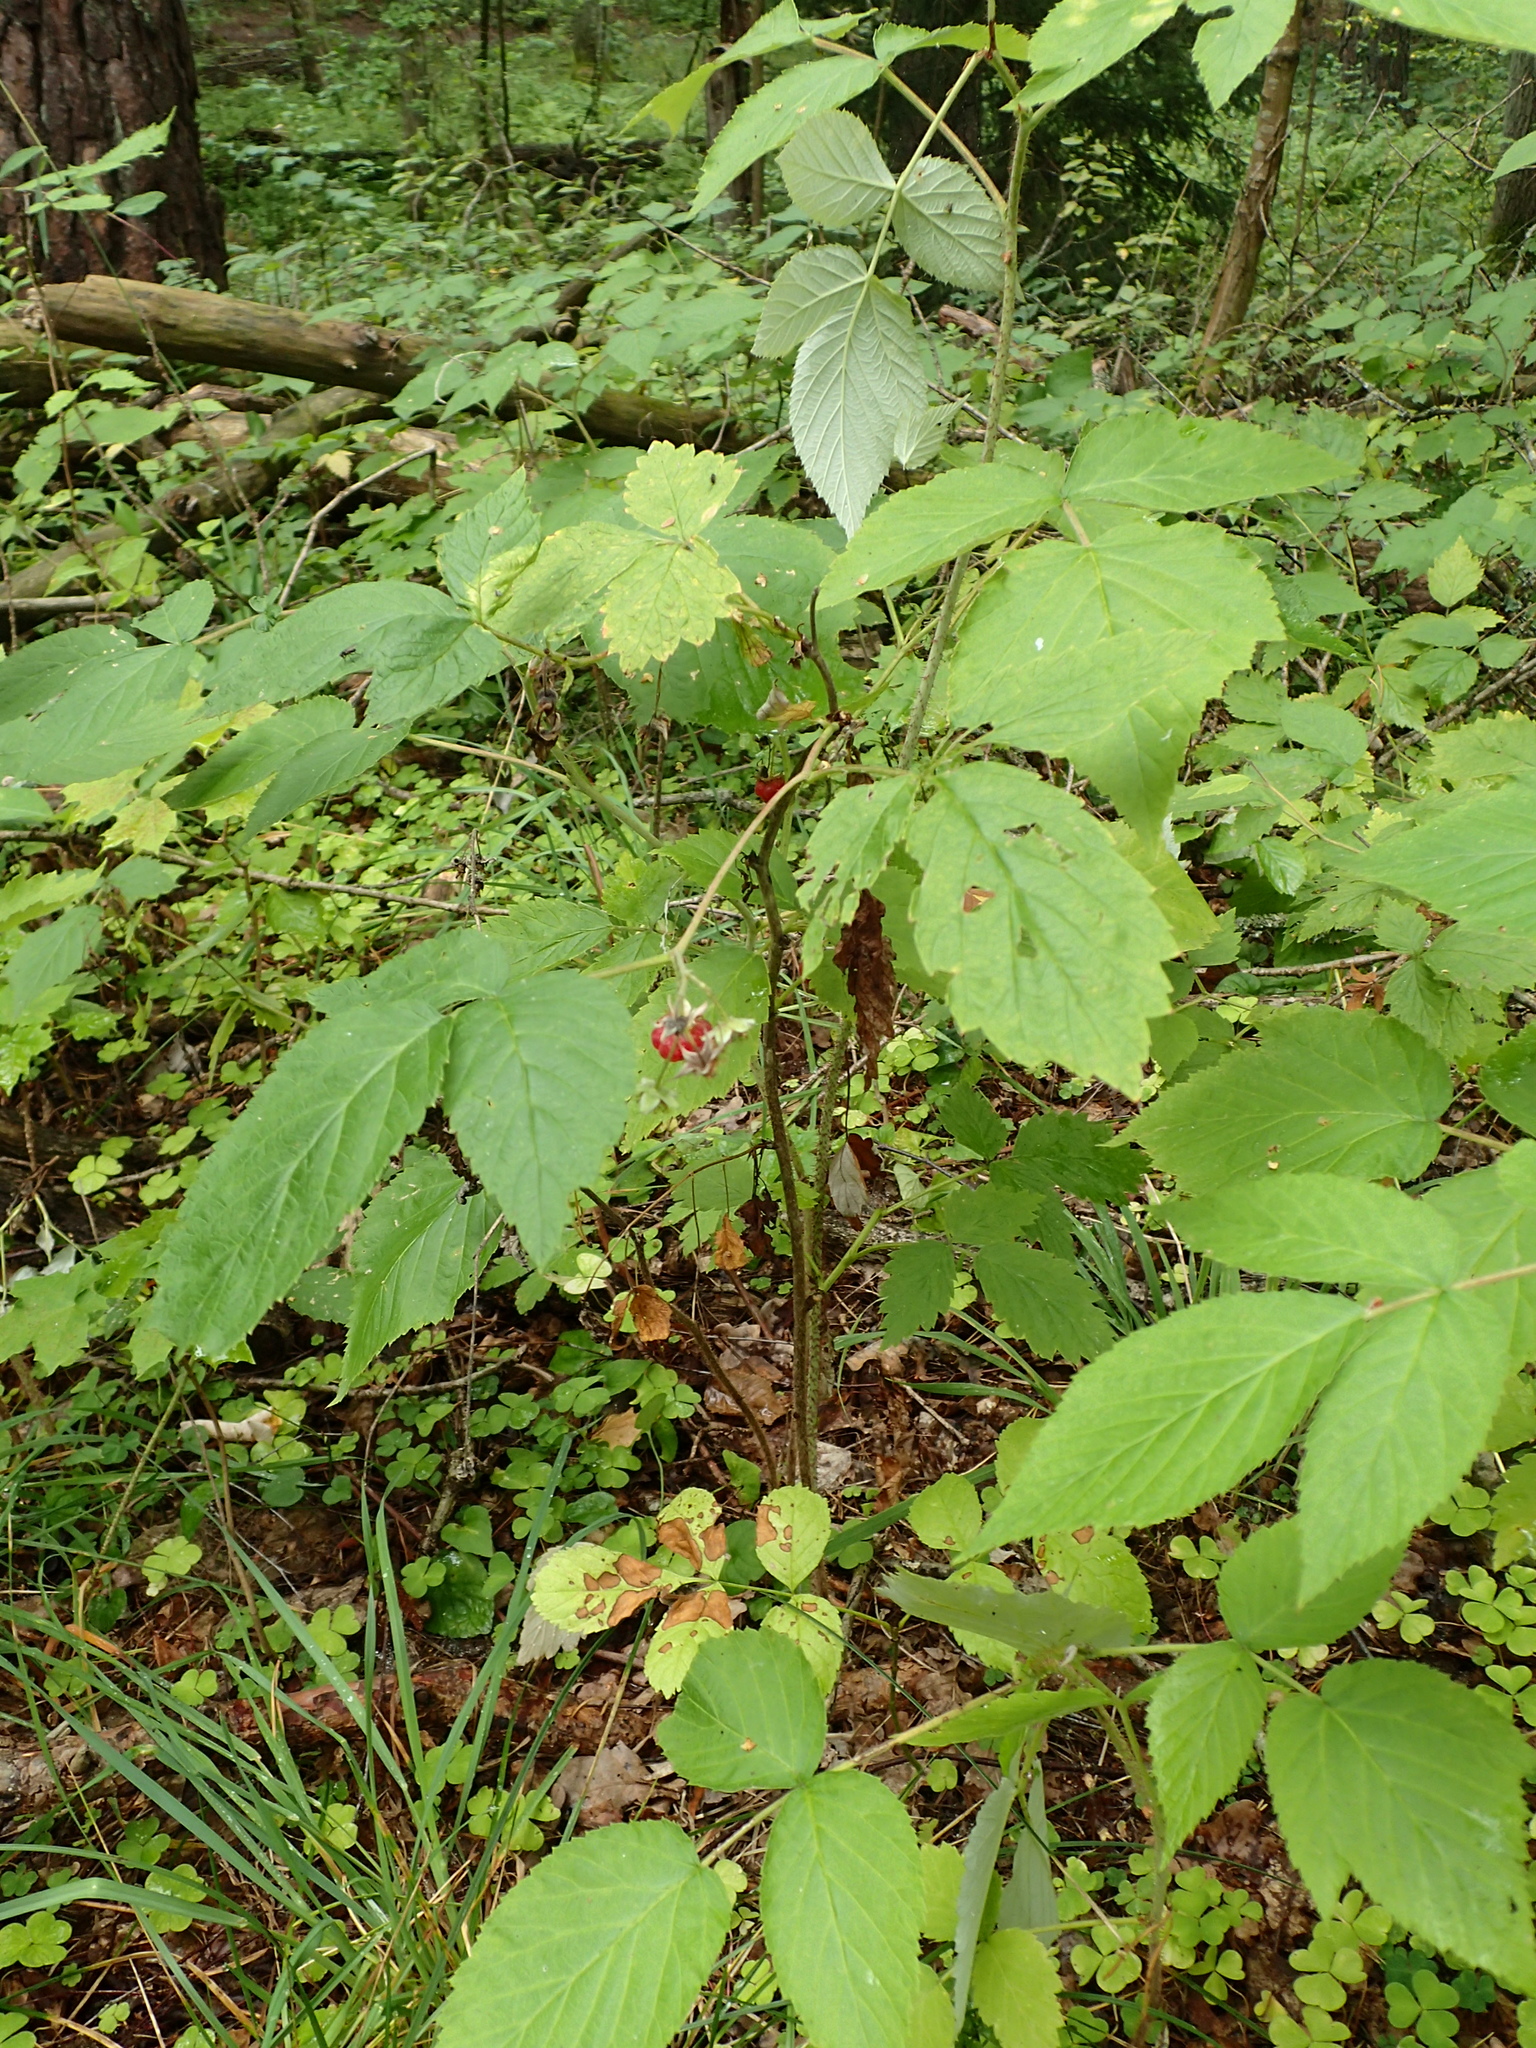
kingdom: Plantae
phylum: Tracheophyta
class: Magnoliopsida
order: Rosales
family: Rosaceae
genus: Rubus
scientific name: Rubus idaeus
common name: Raspberry
